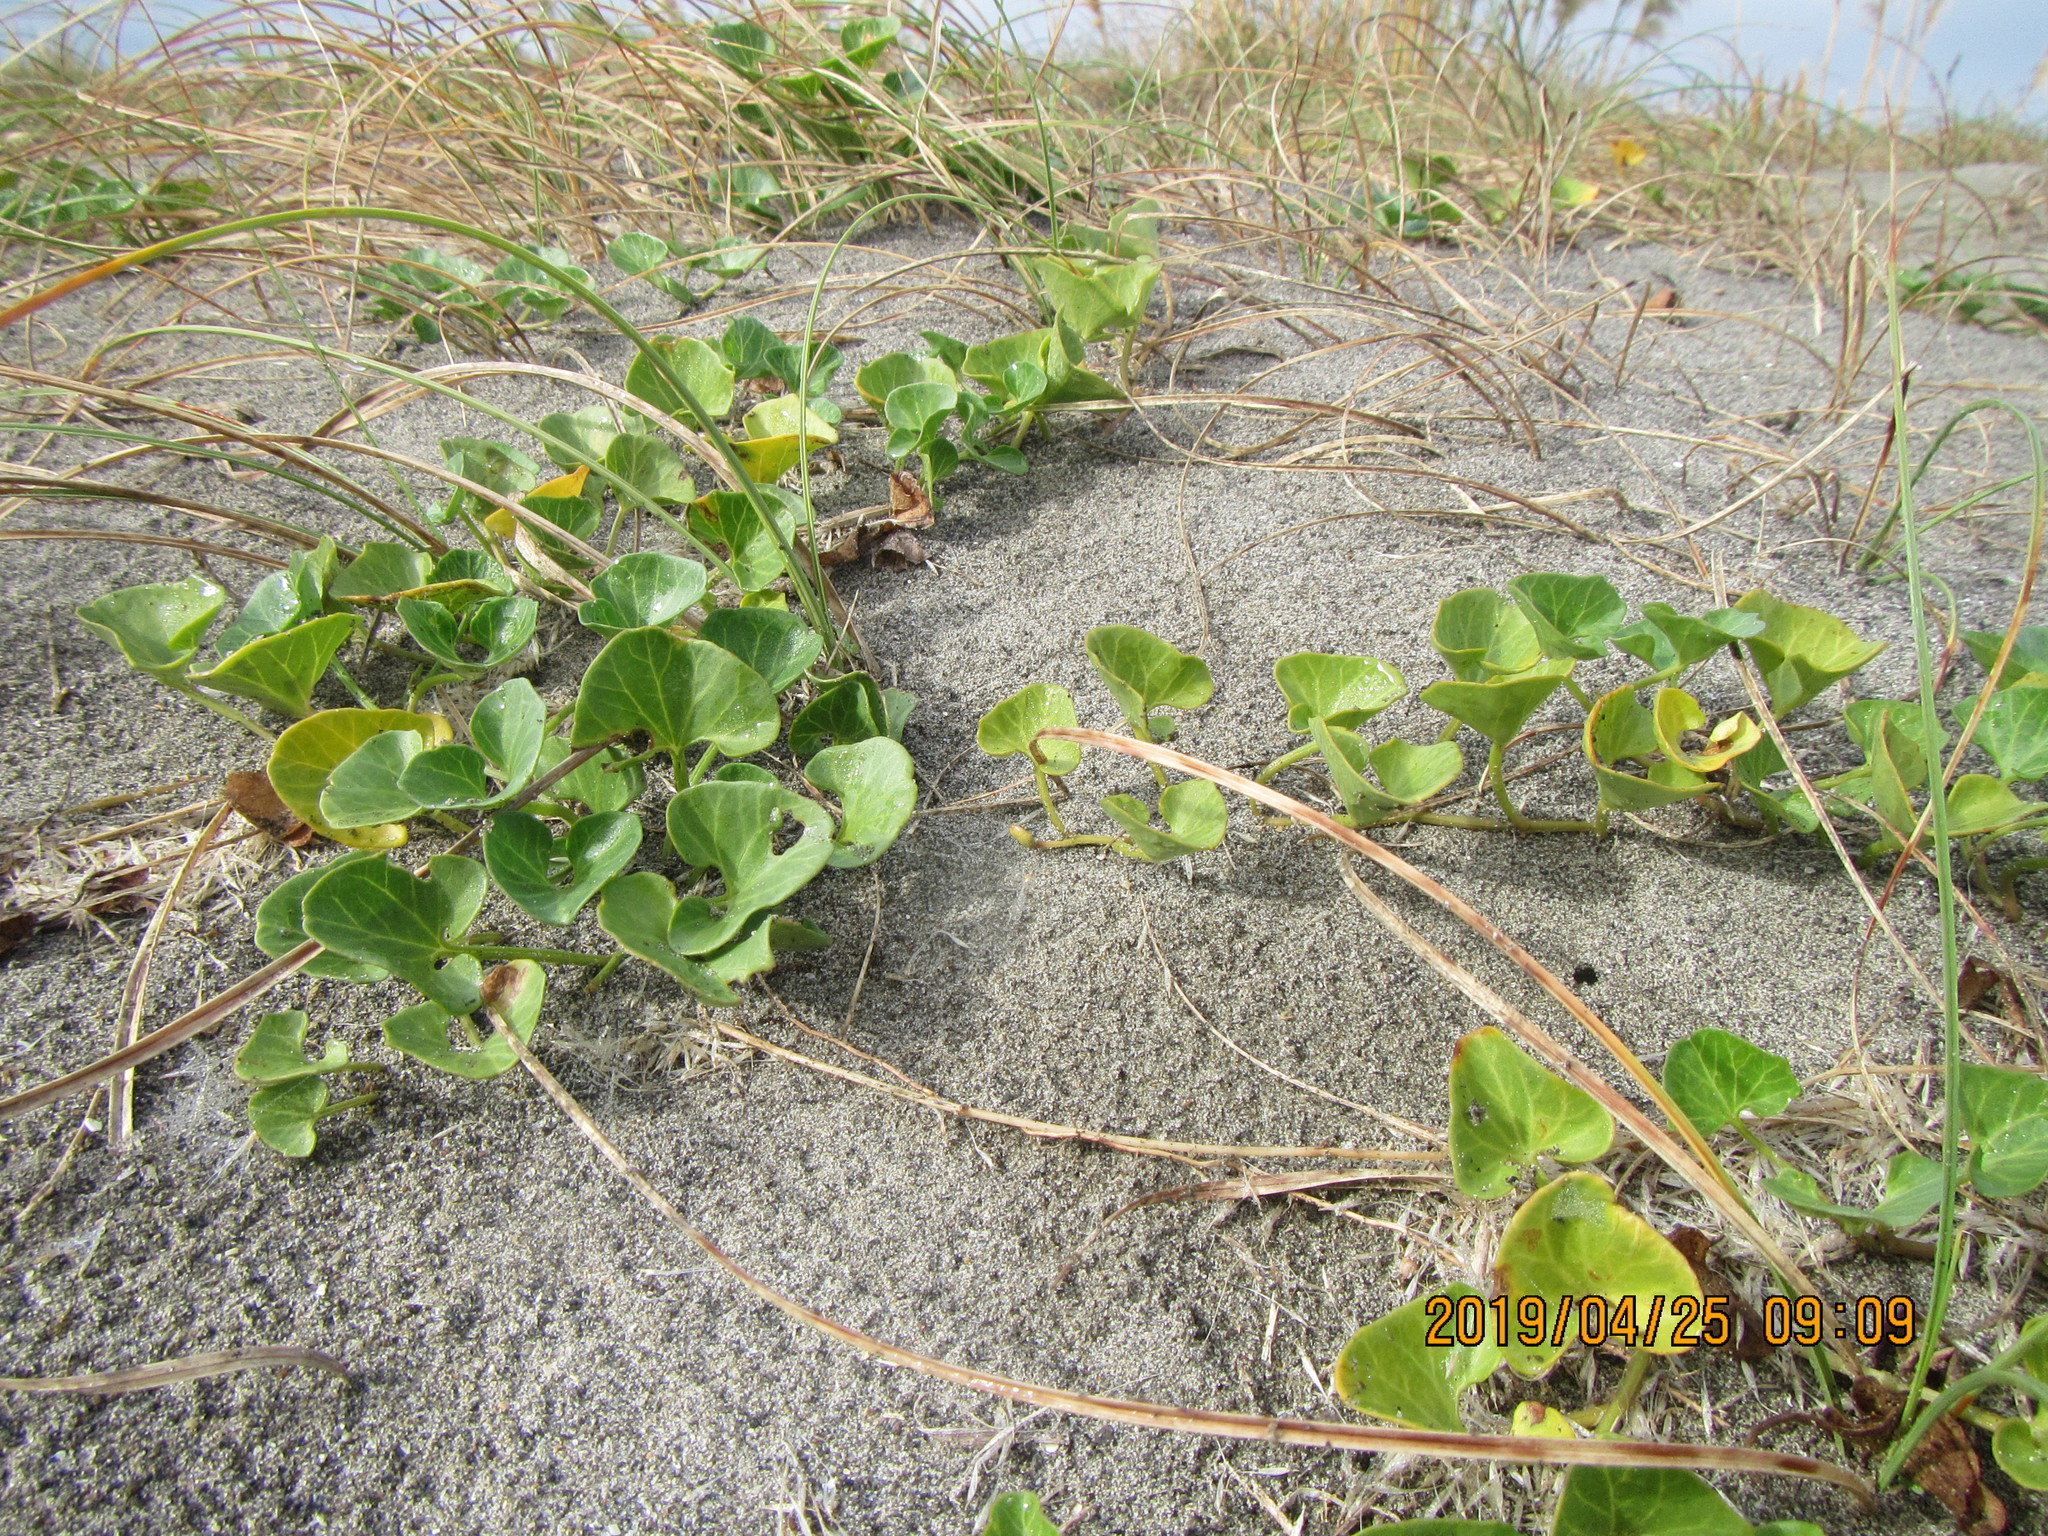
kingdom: Plantae
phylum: Tracheophyta
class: Magnoliopsida
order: Solanales
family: Convolvulaceae
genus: Calystegia
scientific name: Calystegia soldanella
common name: Sea bindweed
